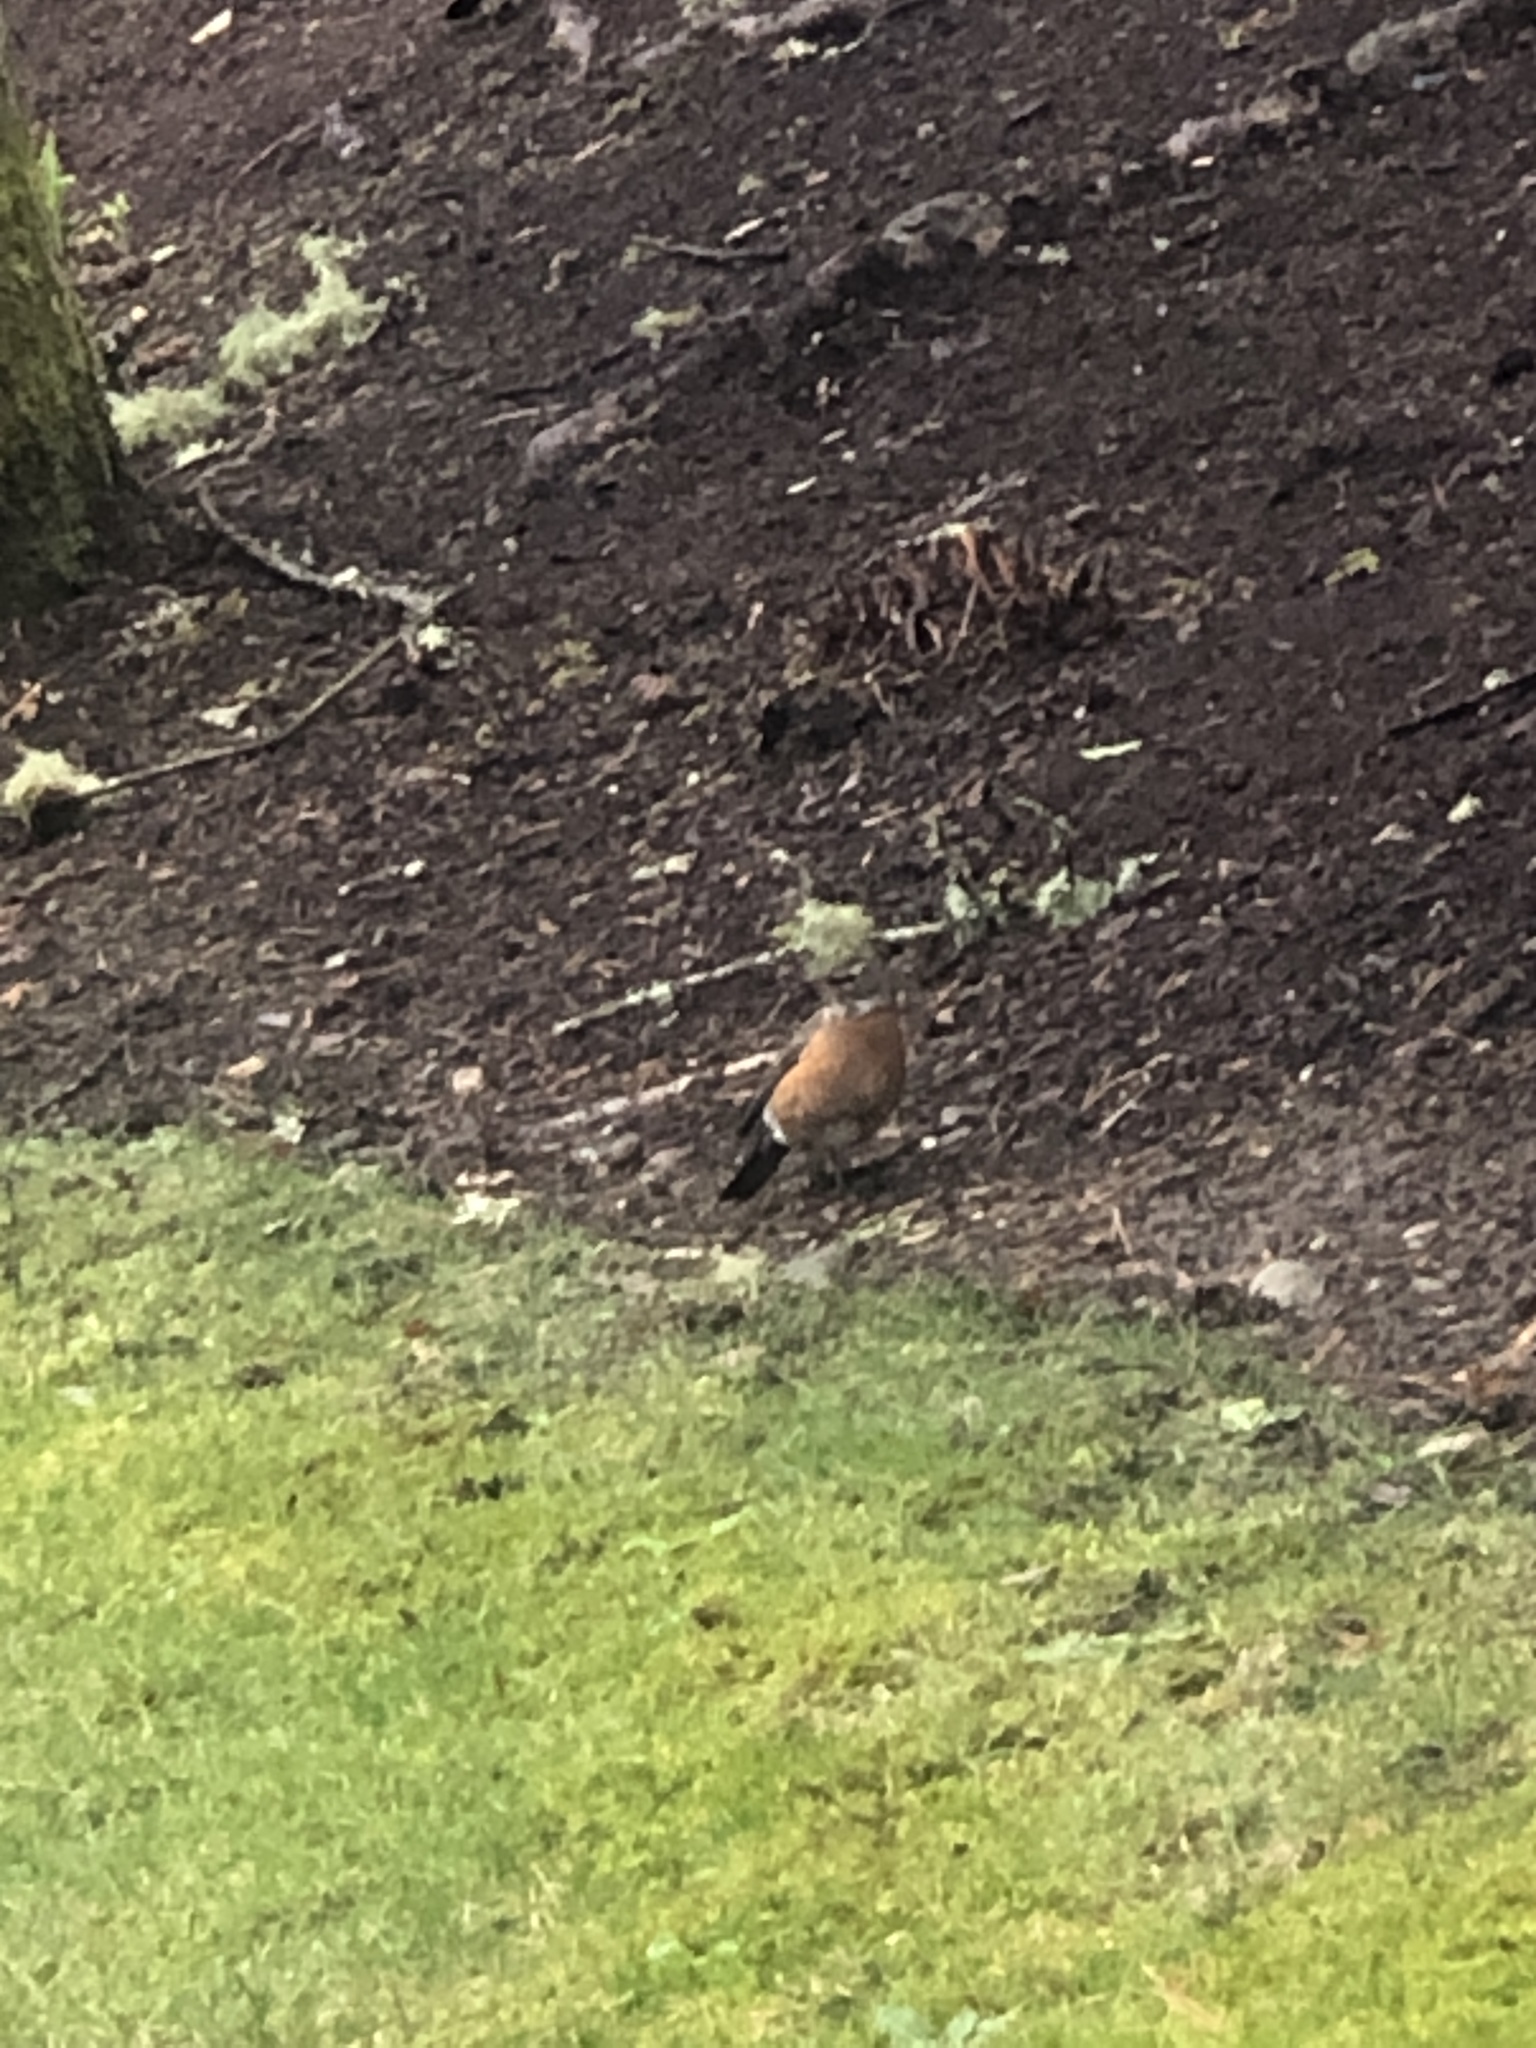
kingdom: Animalia
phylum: Chordata
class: Aves
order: Passeriformes
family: Turdidae
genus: Turdus
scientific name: Turdus migratorius
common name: American robin
